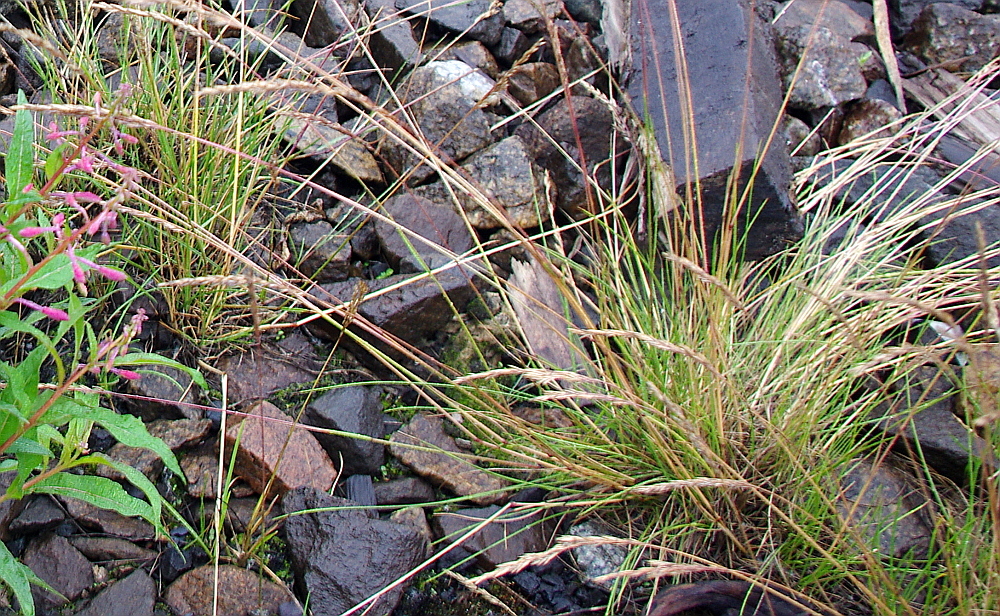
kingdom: Plantae
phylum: Tracheophyta
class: Liliopsida
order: Poales
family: Poaceae
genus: Festuca
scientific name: Festuca ovina
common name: Sheep fescue
